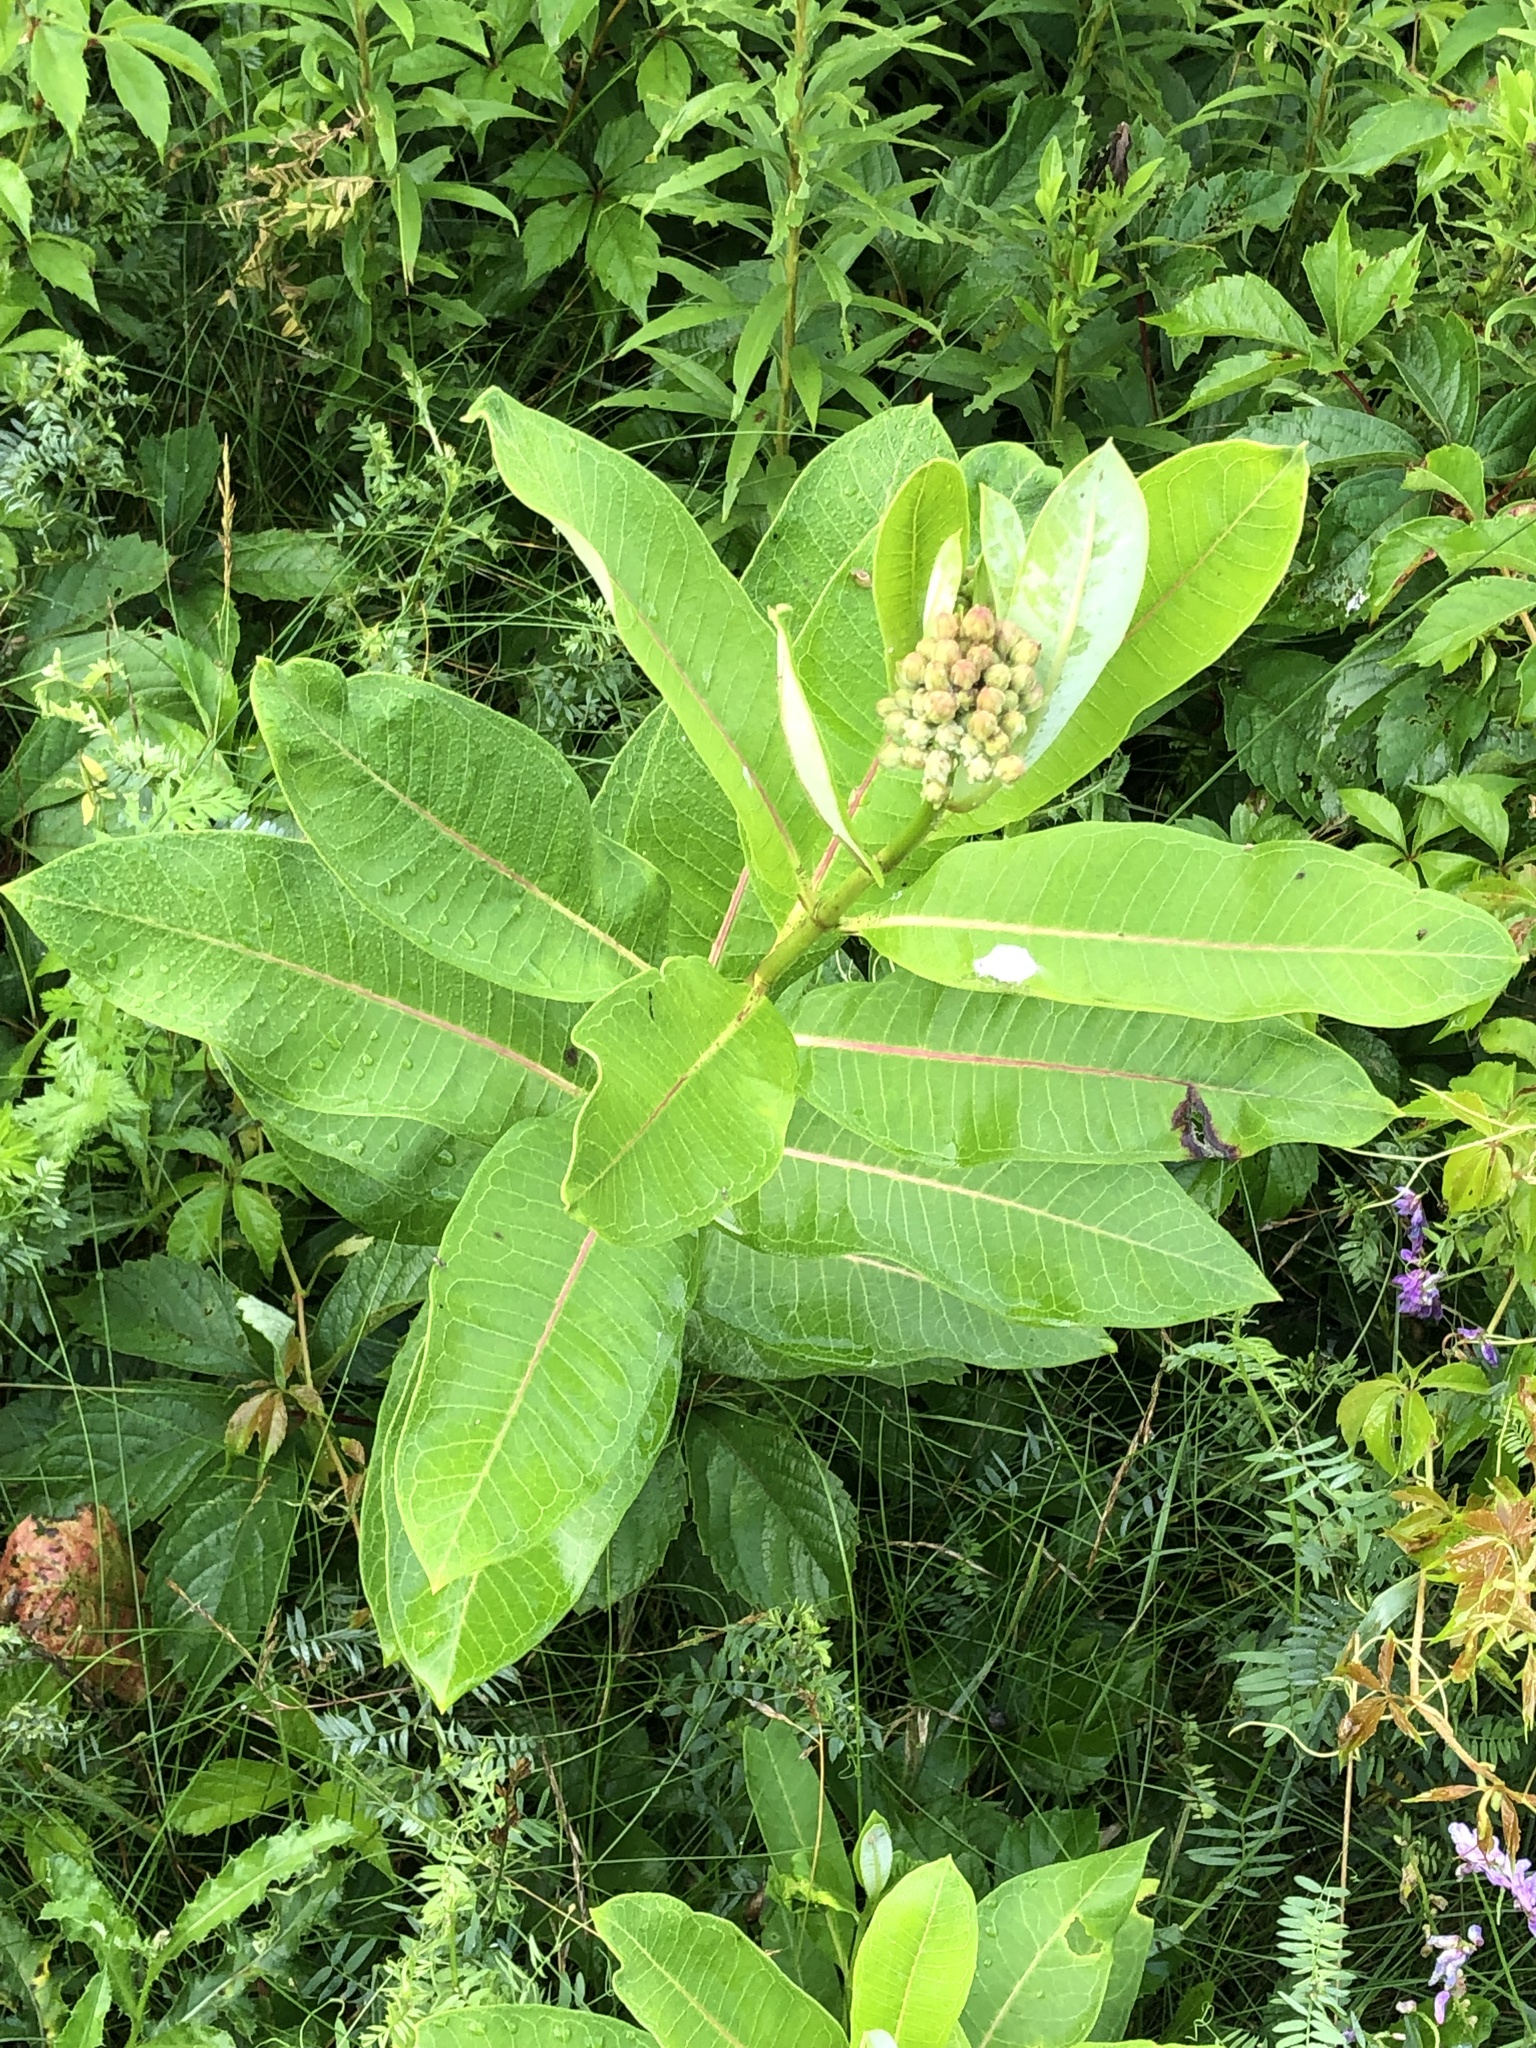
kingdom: Plantae
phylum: Tracheophyta
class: Magnoliopsida
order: Gentianales
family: Apocynaceae
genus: Asclepias
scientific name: Asclepias syriaca
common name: Common milkweed
